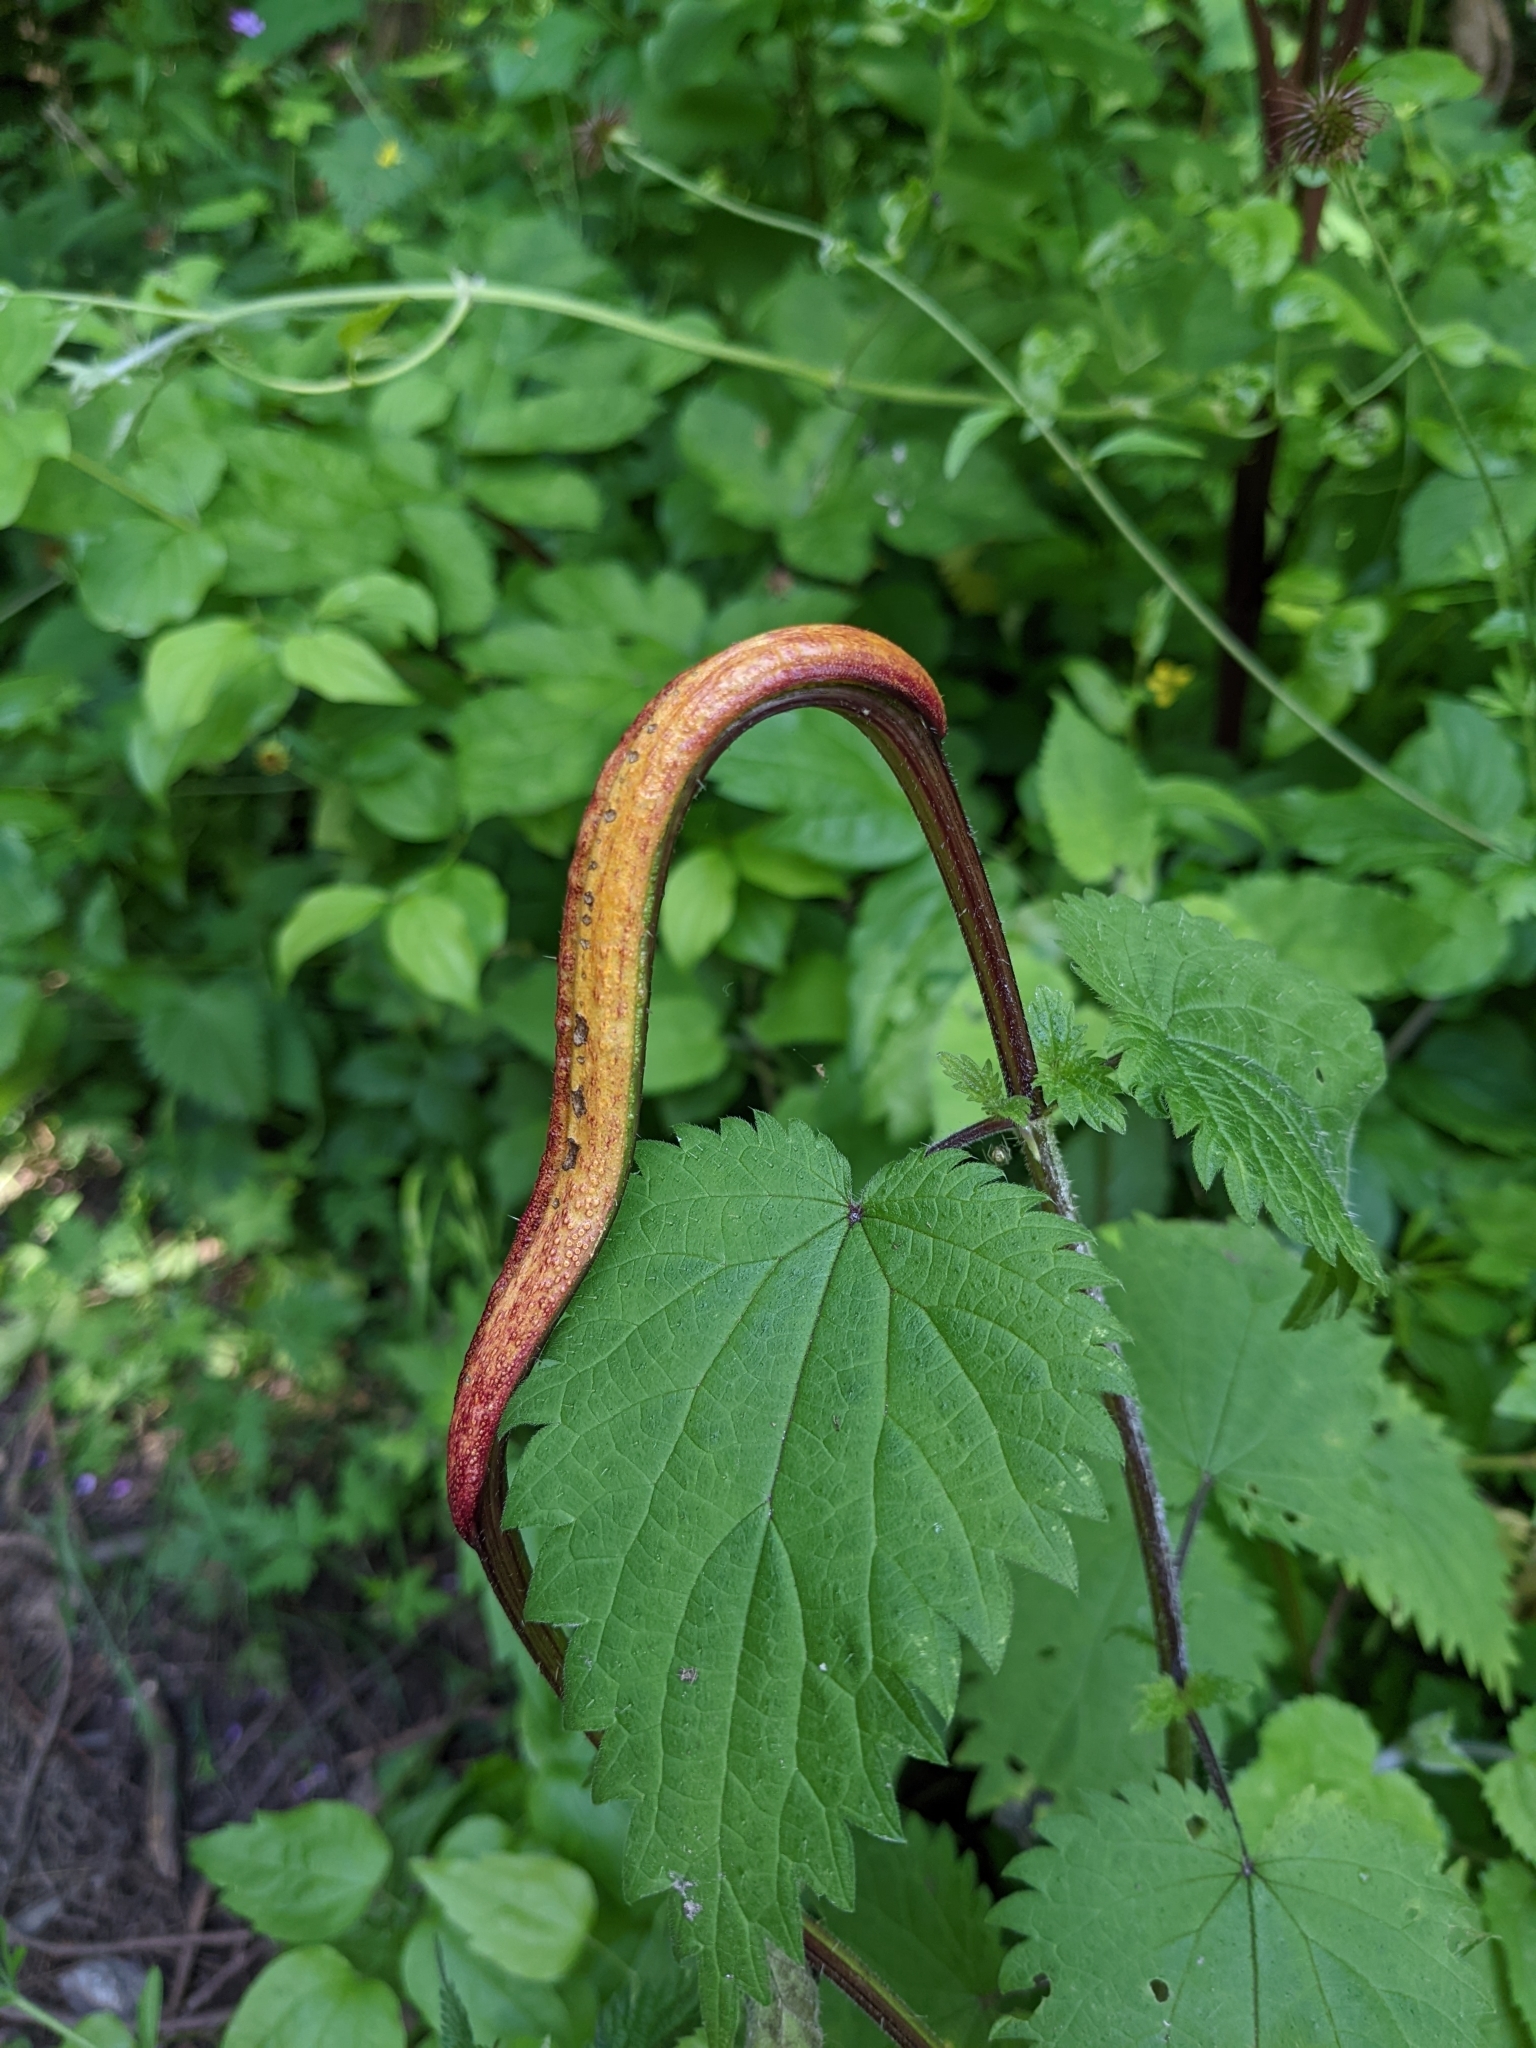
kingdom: Fungi
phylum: Basidiomycota
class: Pucciniomycetes
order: Pucciniales
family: Pucciniaceae
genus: Puccinia
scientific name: Puccinia urticata
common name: Nettle clustercup rust fungus
